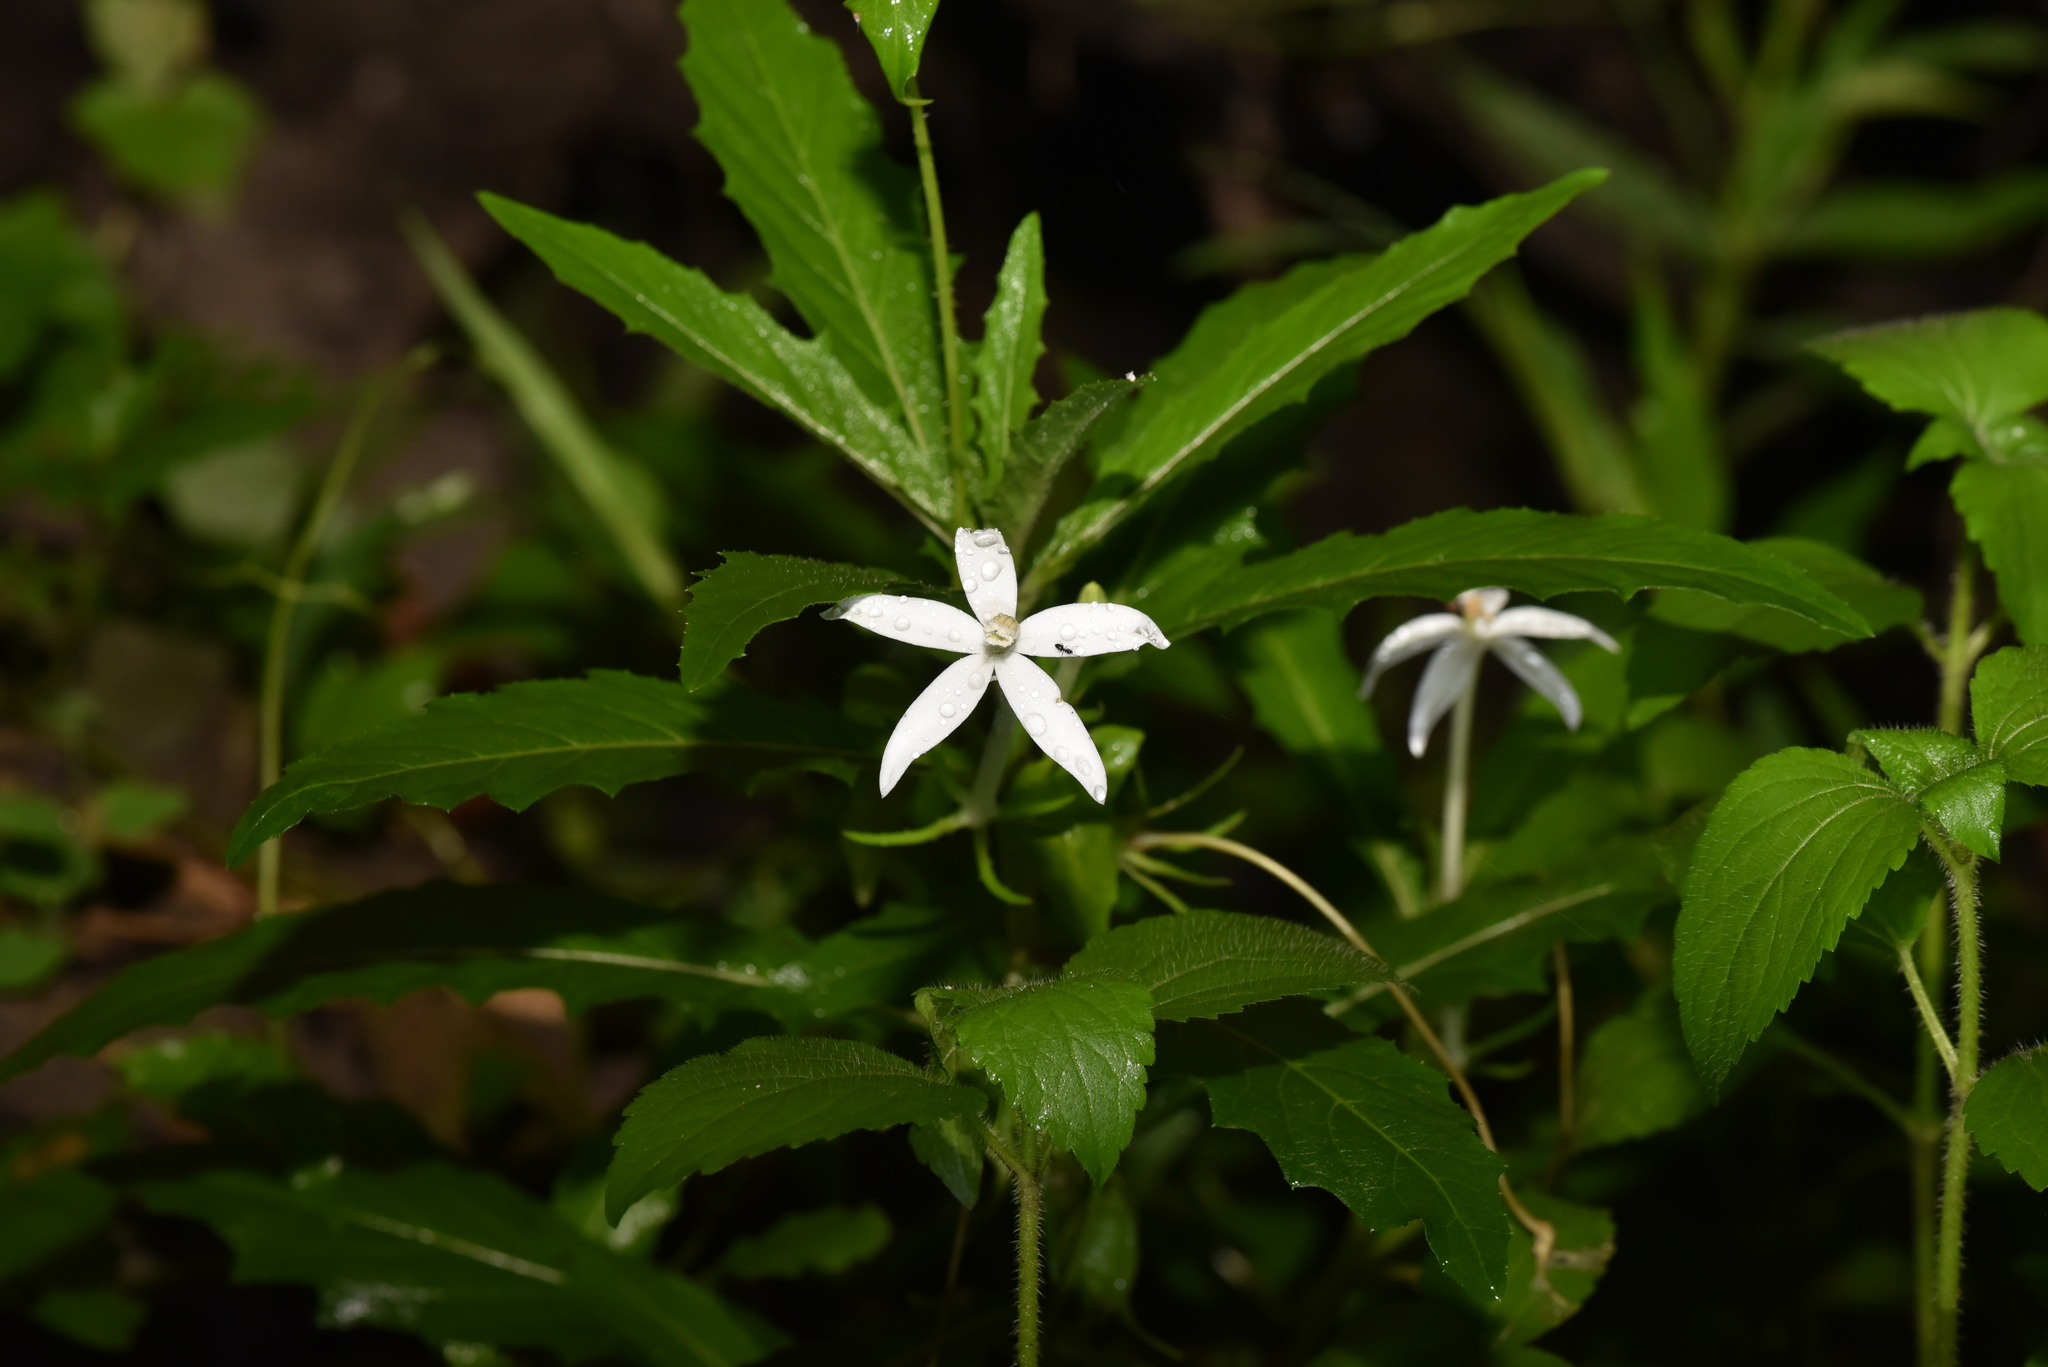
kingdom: Plantae
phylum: Tracheophyta
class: Magnoliopsida
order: Asterales
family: Campanulaceae
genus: Hippobroma
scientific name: Hippobroma longiflora
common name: Madamfate
